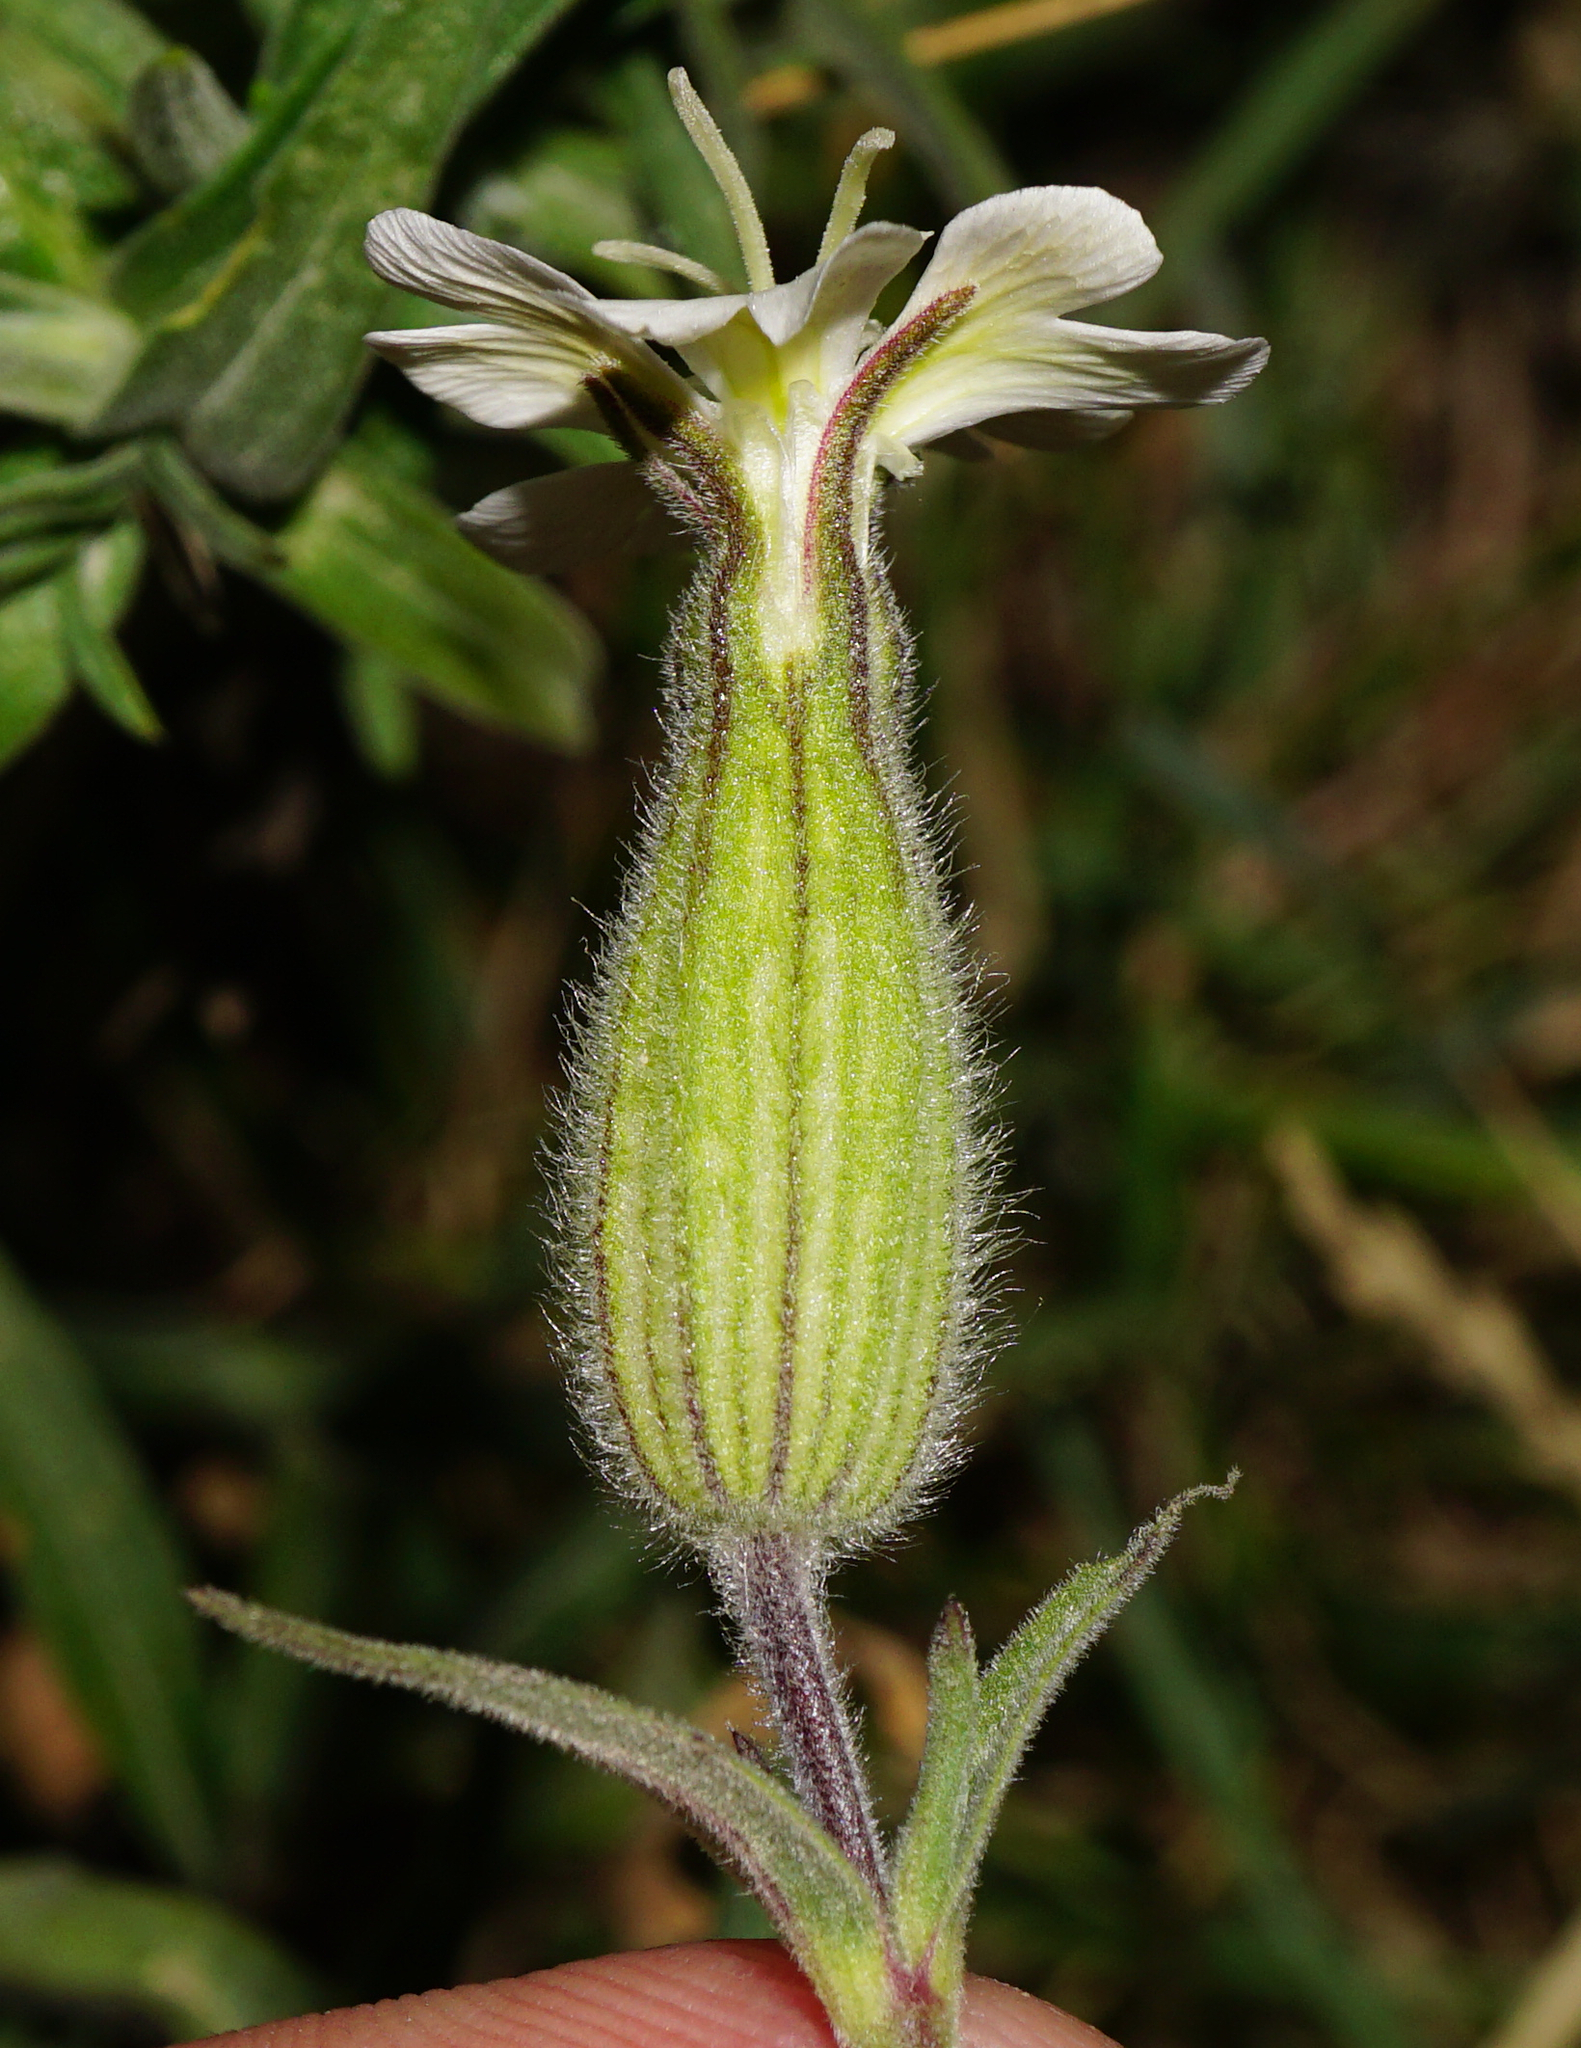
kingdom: Plantae
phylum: Tracheophyta
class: Magnoliopsida
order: Caryophyllales
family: Caryophyllaceae
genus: Silene
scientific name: Silene latifolia
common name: White campion
